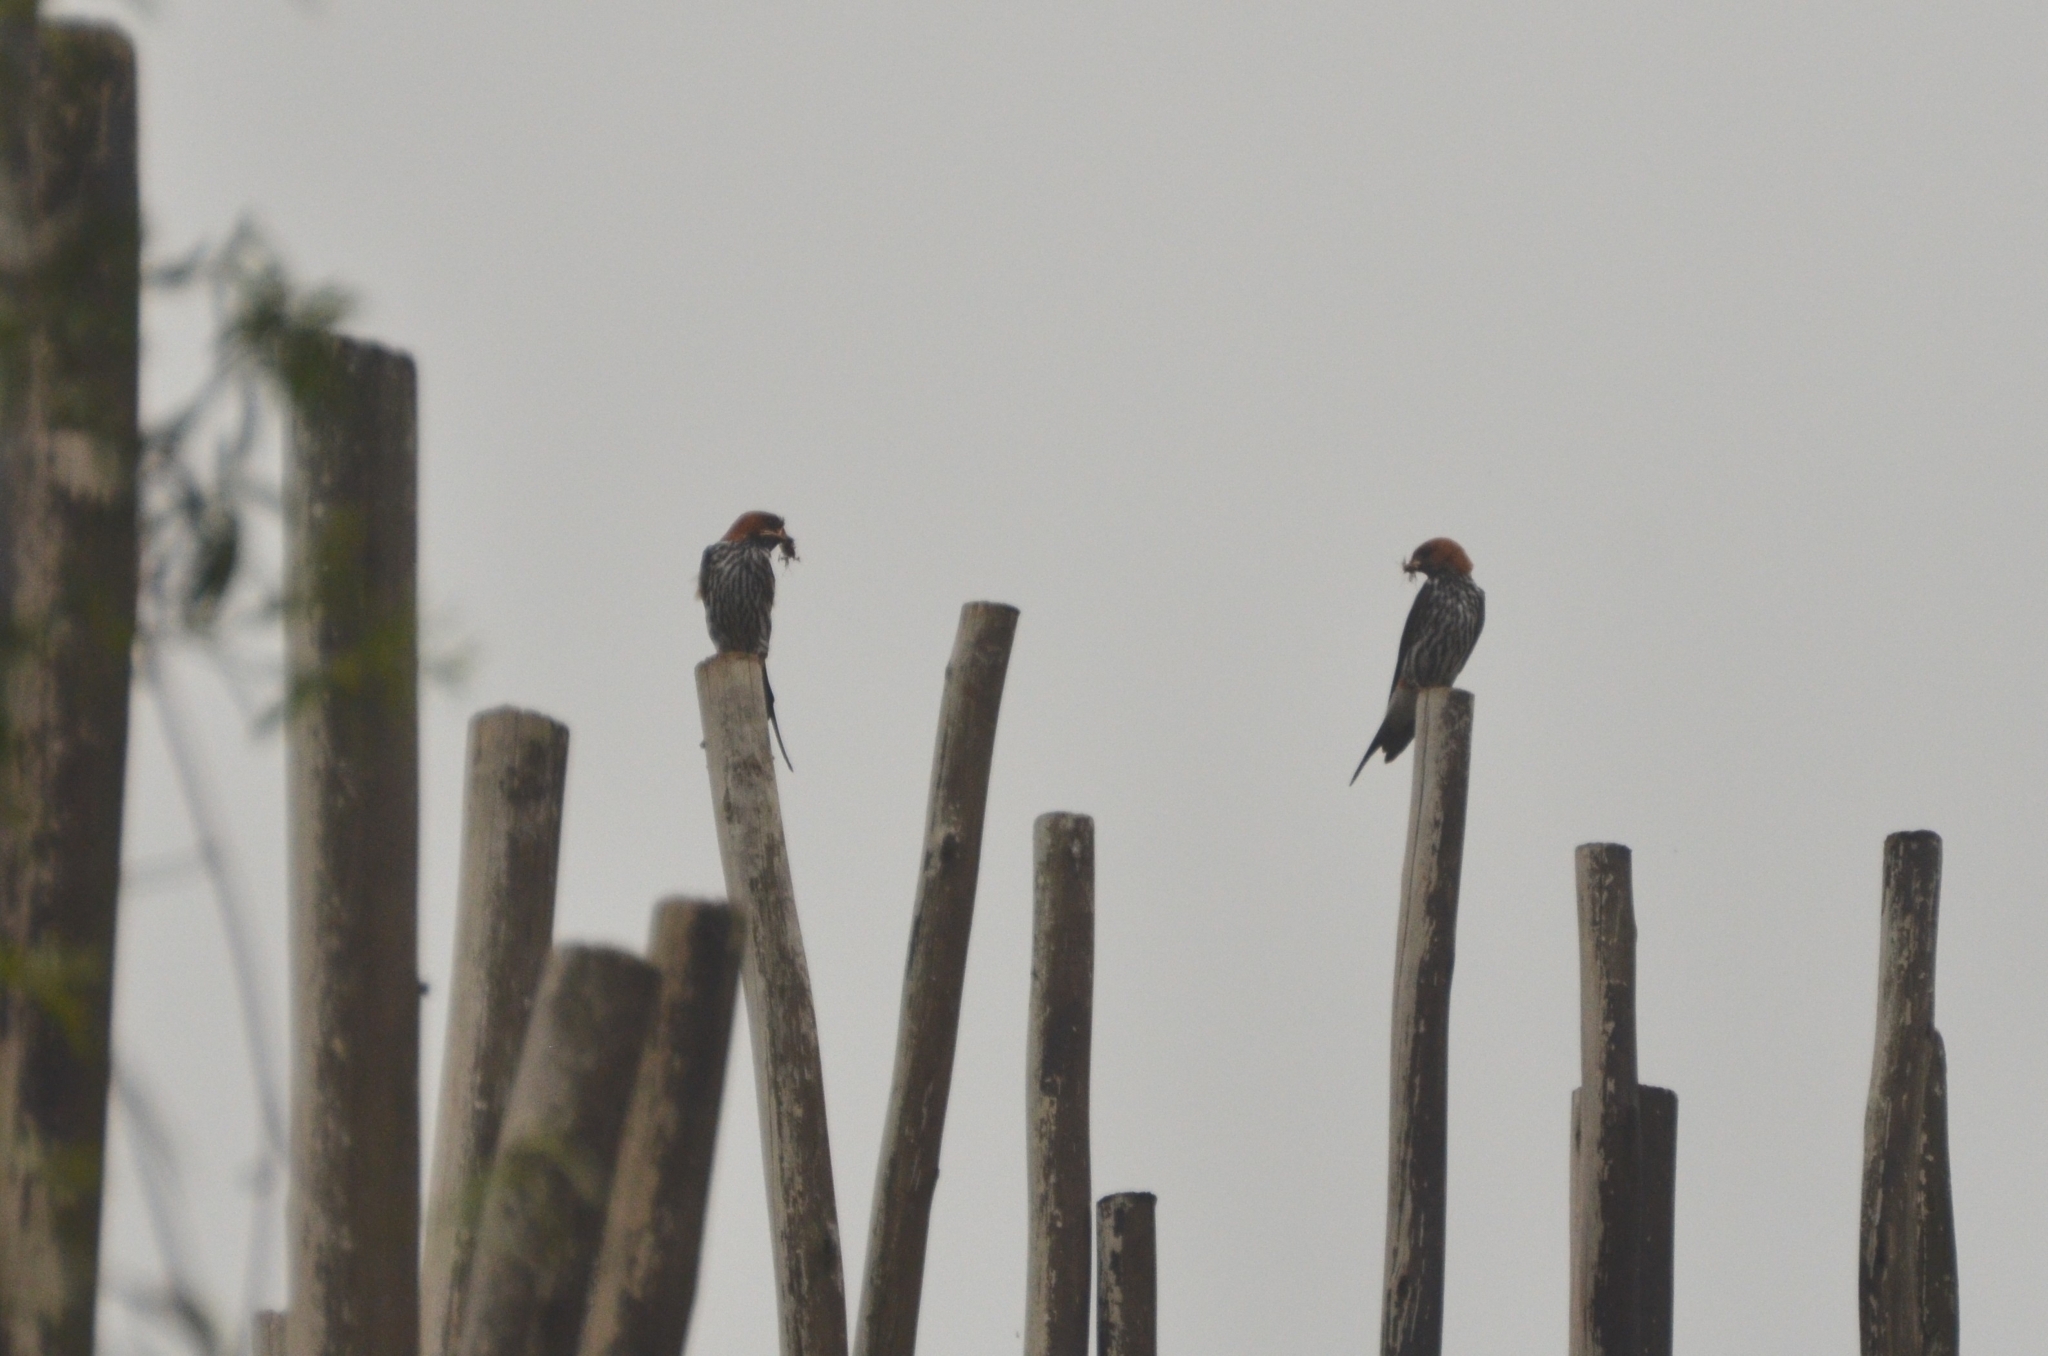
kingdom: Animalia
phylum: Chordata
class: Aves
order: Passeriformes
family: Hirundinidae
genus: Cecropis
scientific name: Cecropis abyssinica
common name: Lesser striped-swallow
